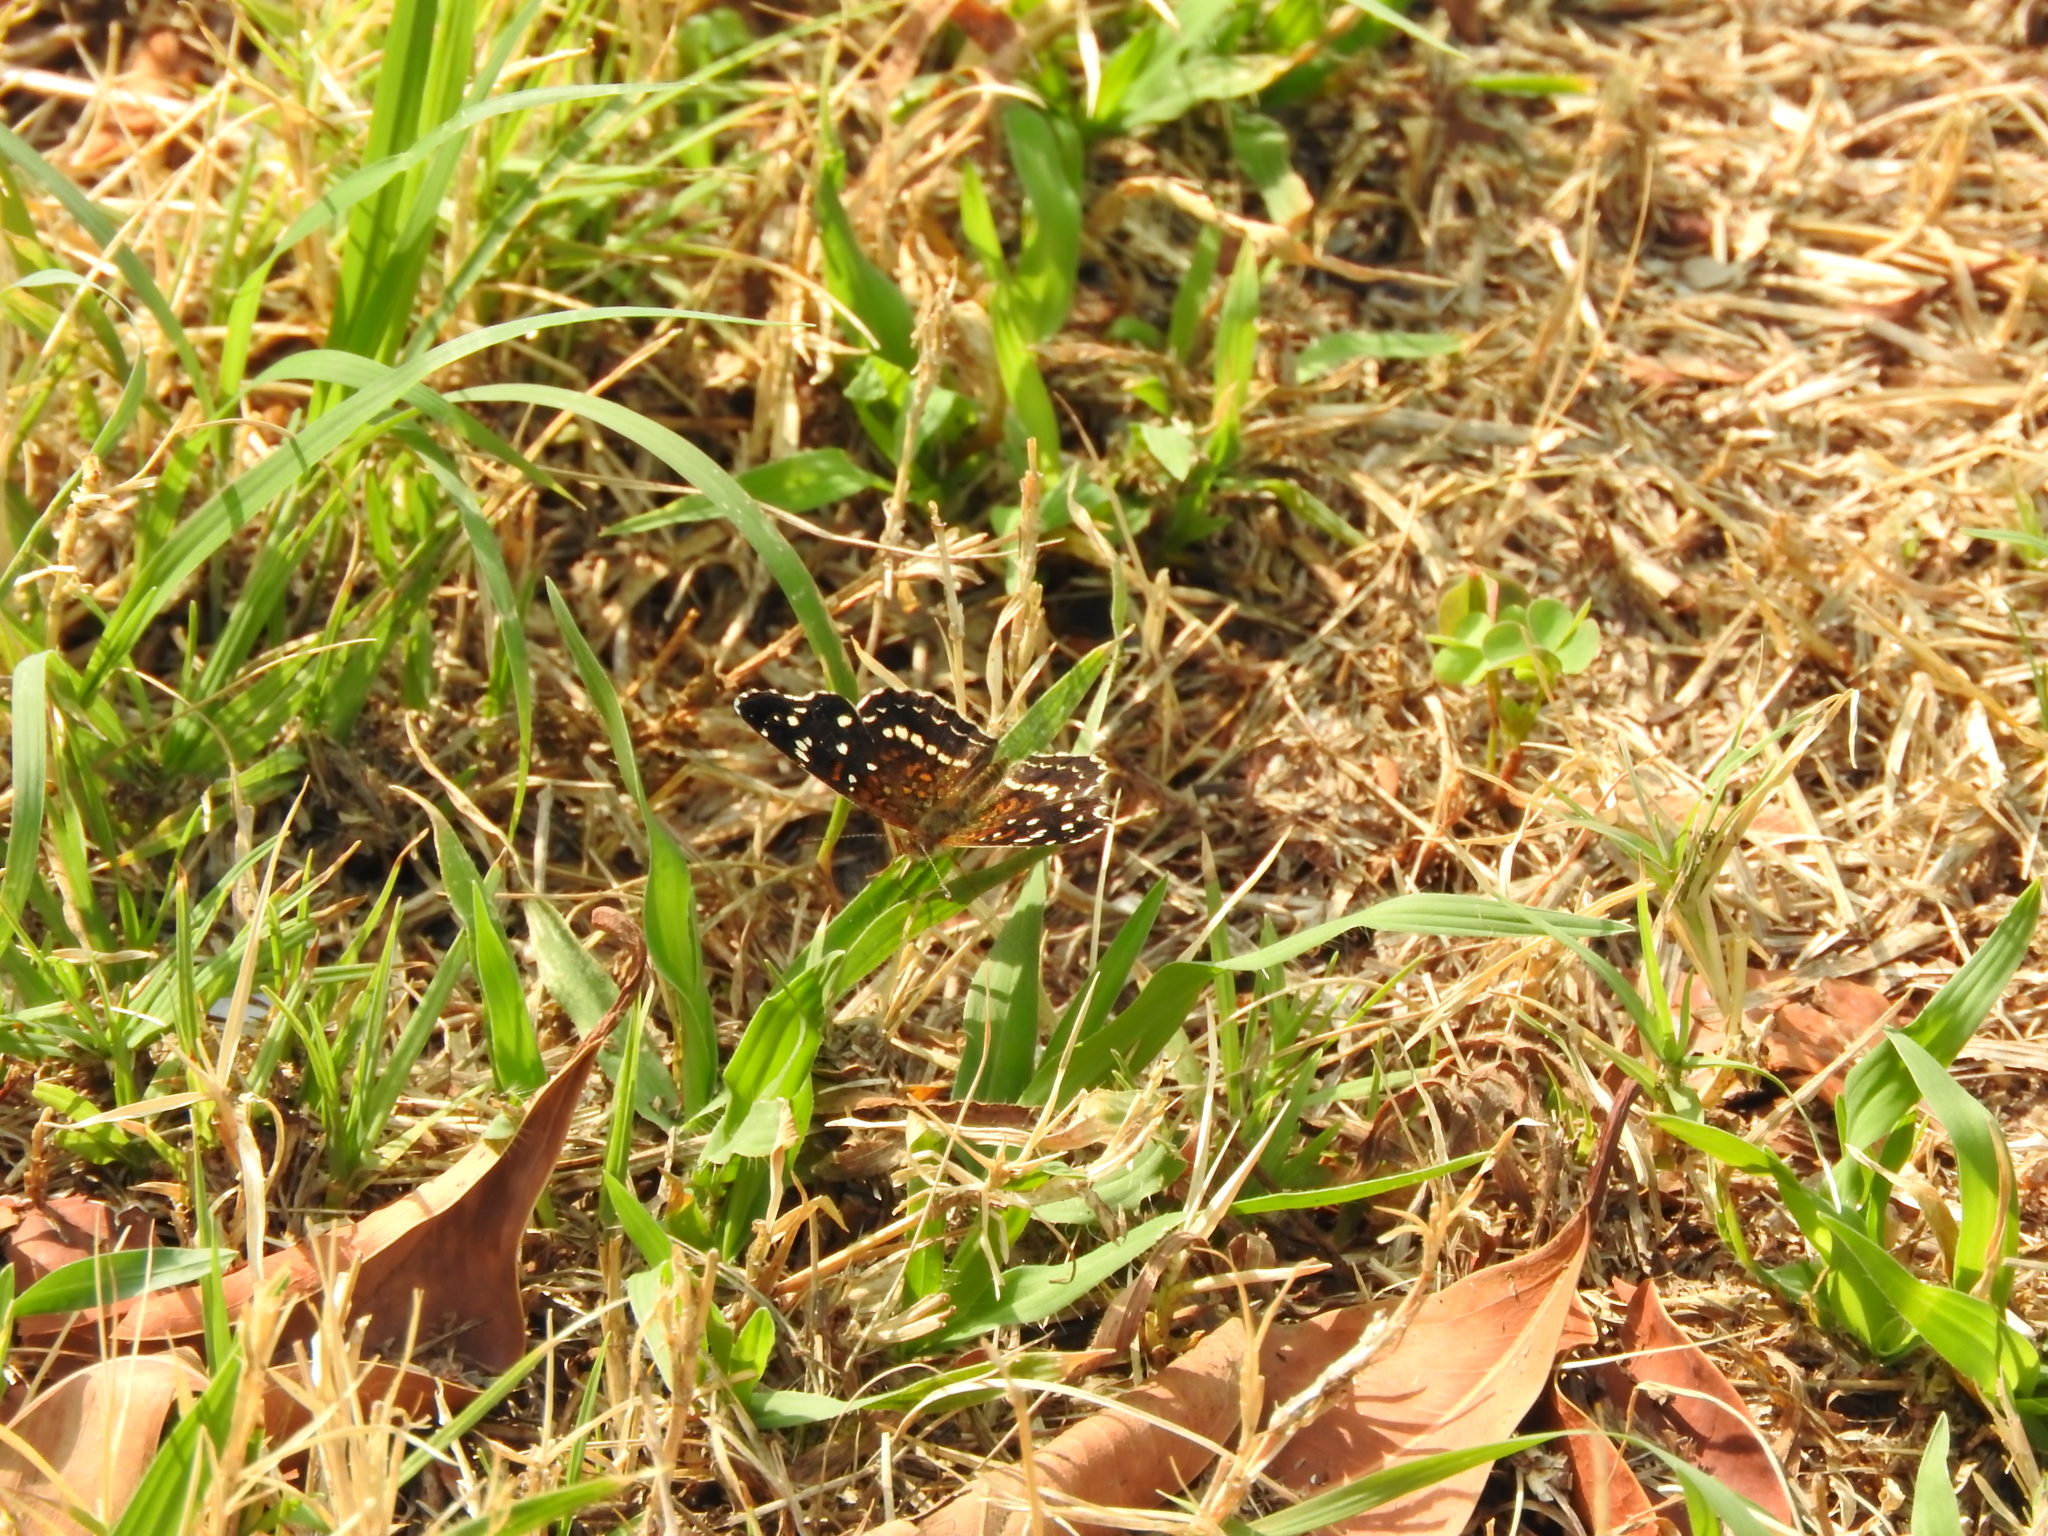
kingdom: Animalia
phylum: Arthropoda
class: Insecta
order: Lepidoptera
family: Nymphalidae
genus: Anthanassa
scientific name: Anthanassa texana
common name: Texan crescent
